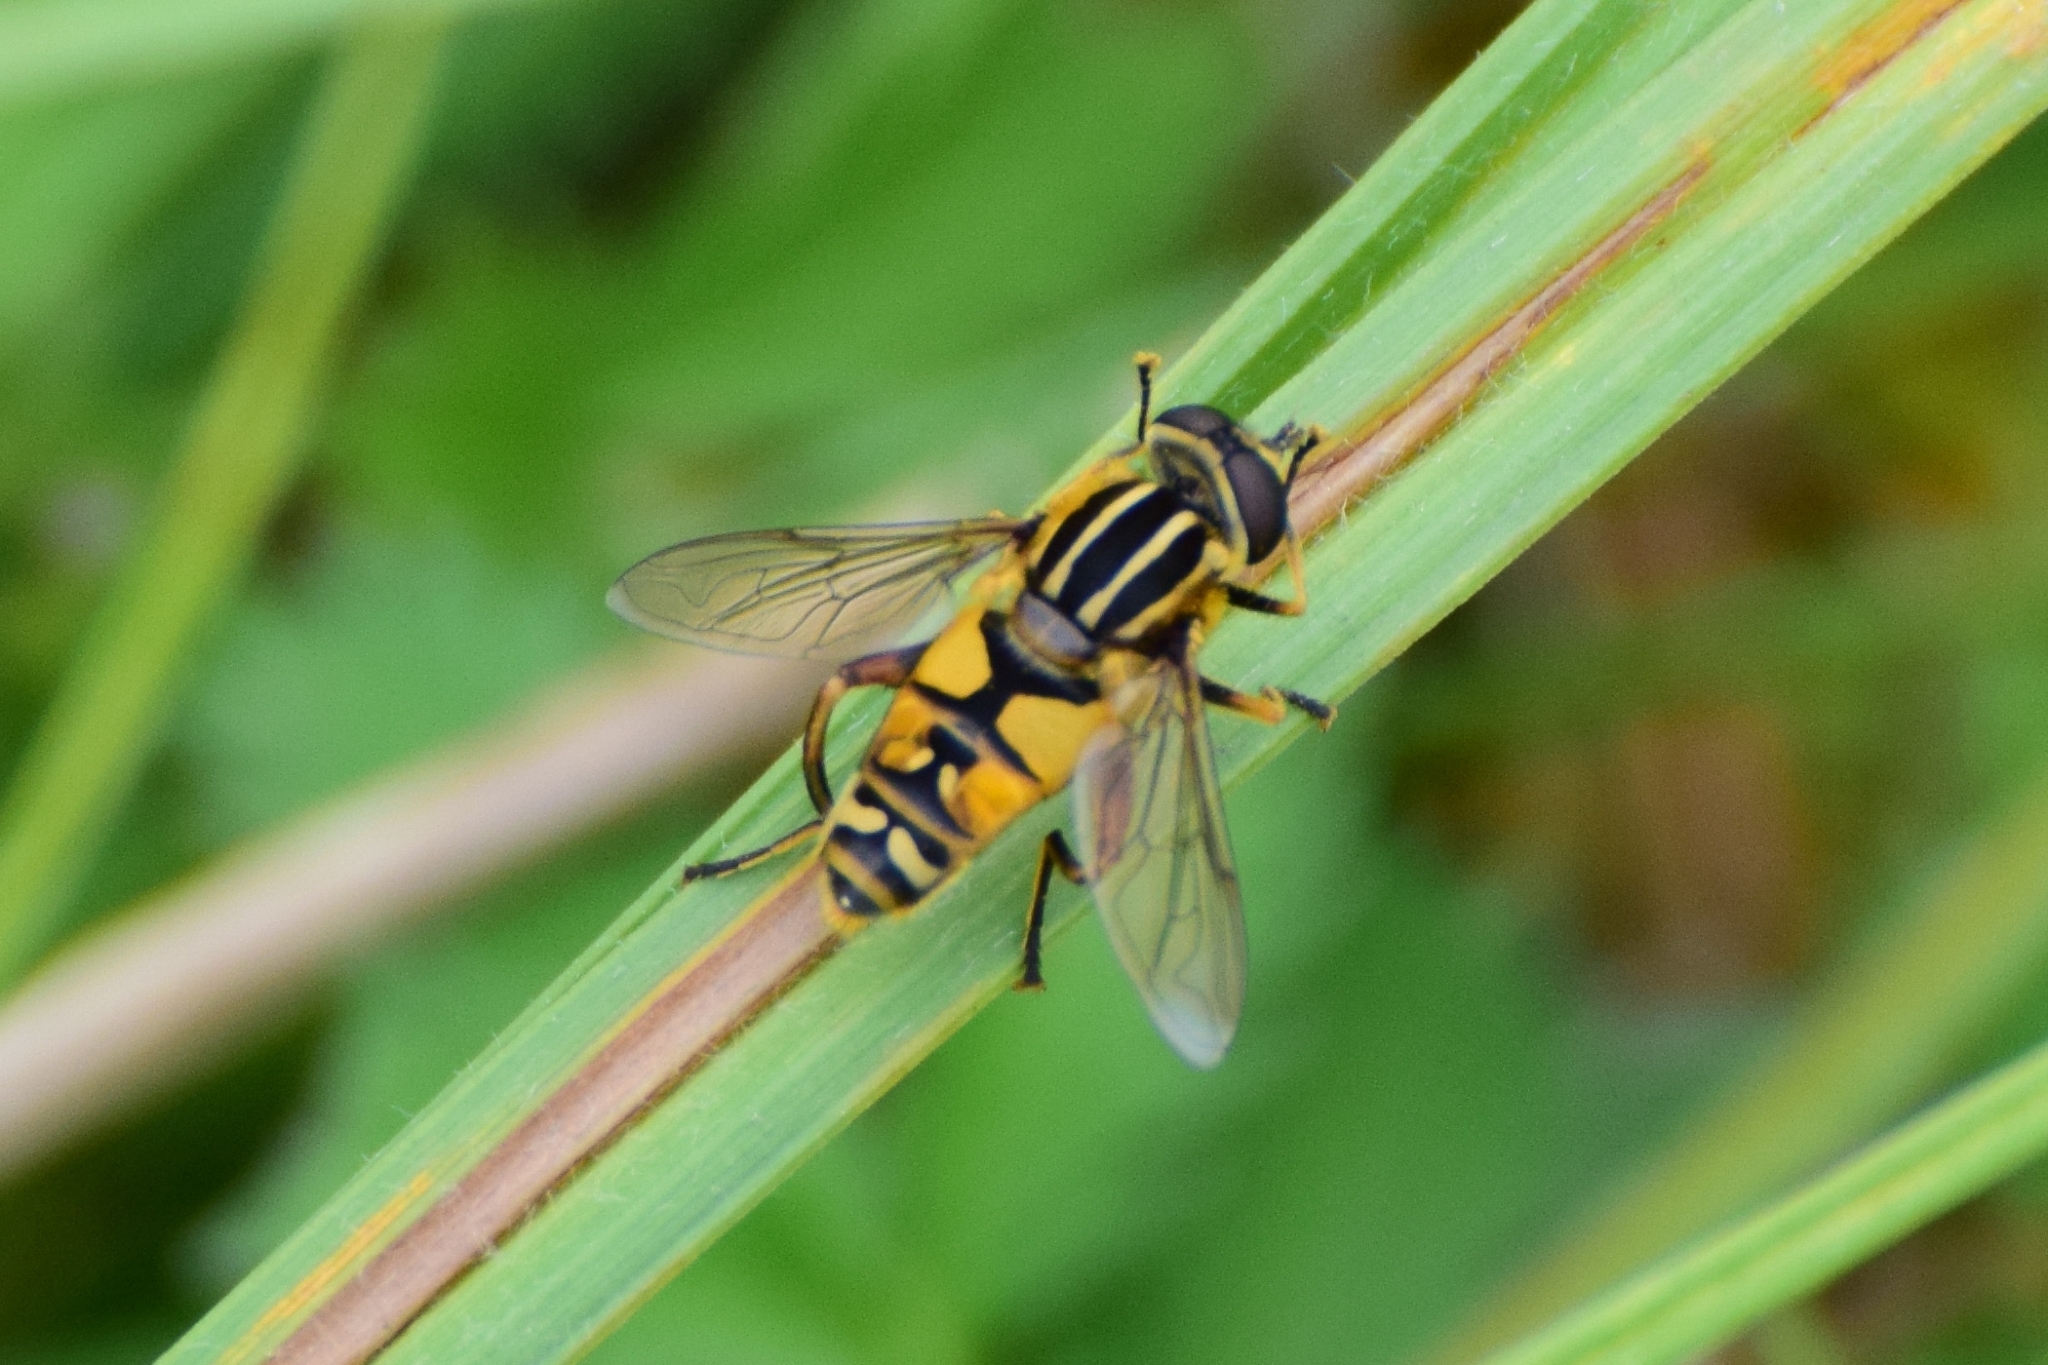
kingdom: Animalia
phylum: Arthropoda
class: Insecta
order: Diptera
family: Syrphidae
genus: Helophilus
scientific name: Helophilus pendulus
